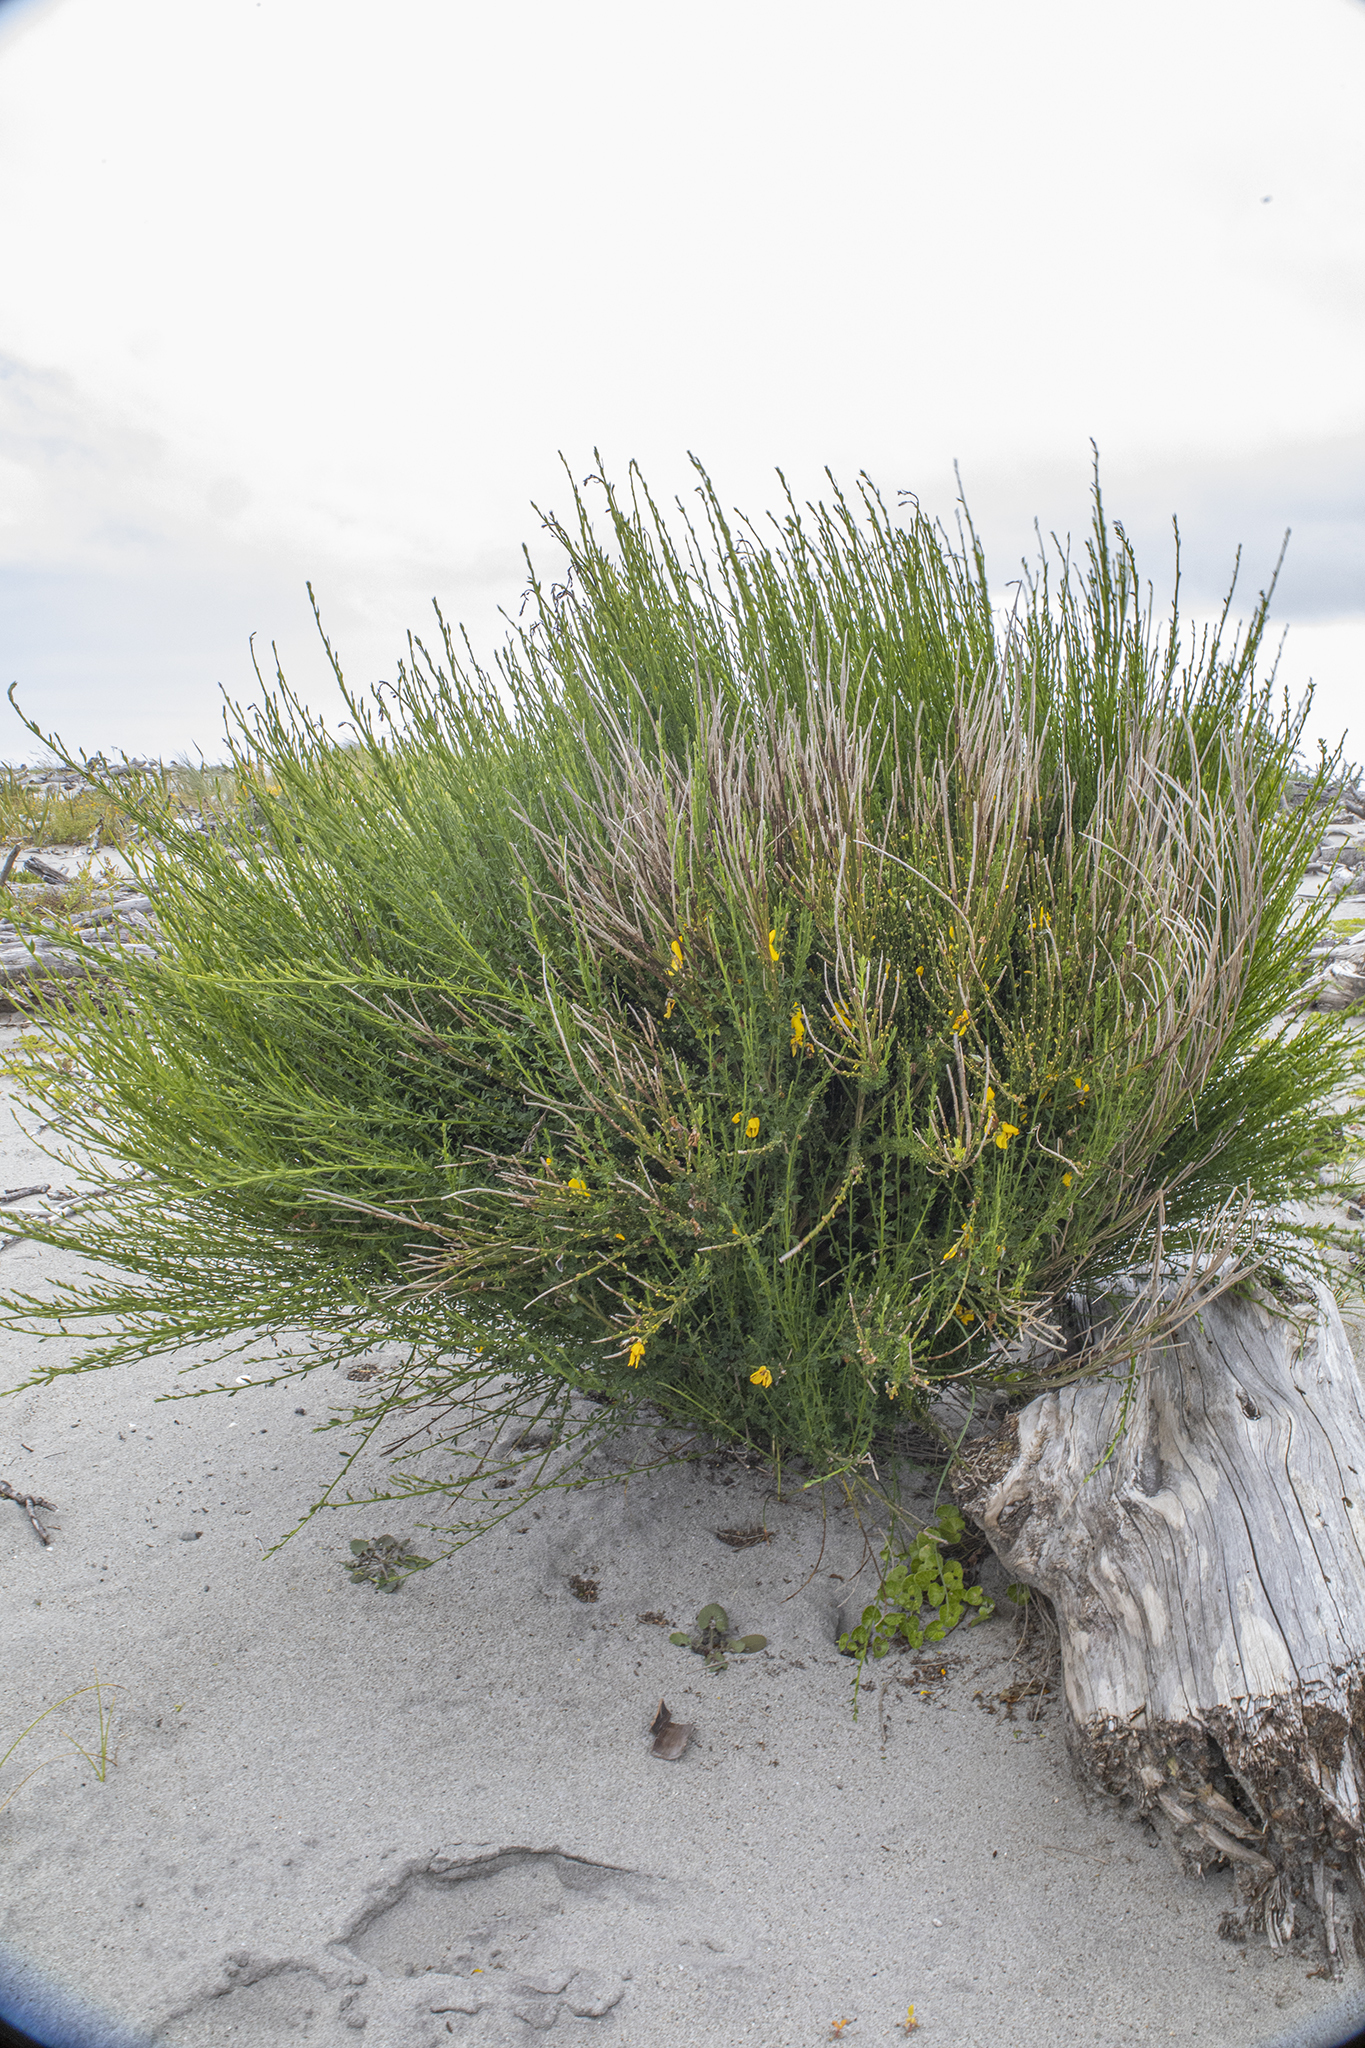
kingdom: Plantae
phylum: Tracheophyta
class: Magnoliopsida
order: Fabales
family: Fabaceae
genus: Cytisus
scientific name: Cytisus scoparius
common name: Scotch broom
